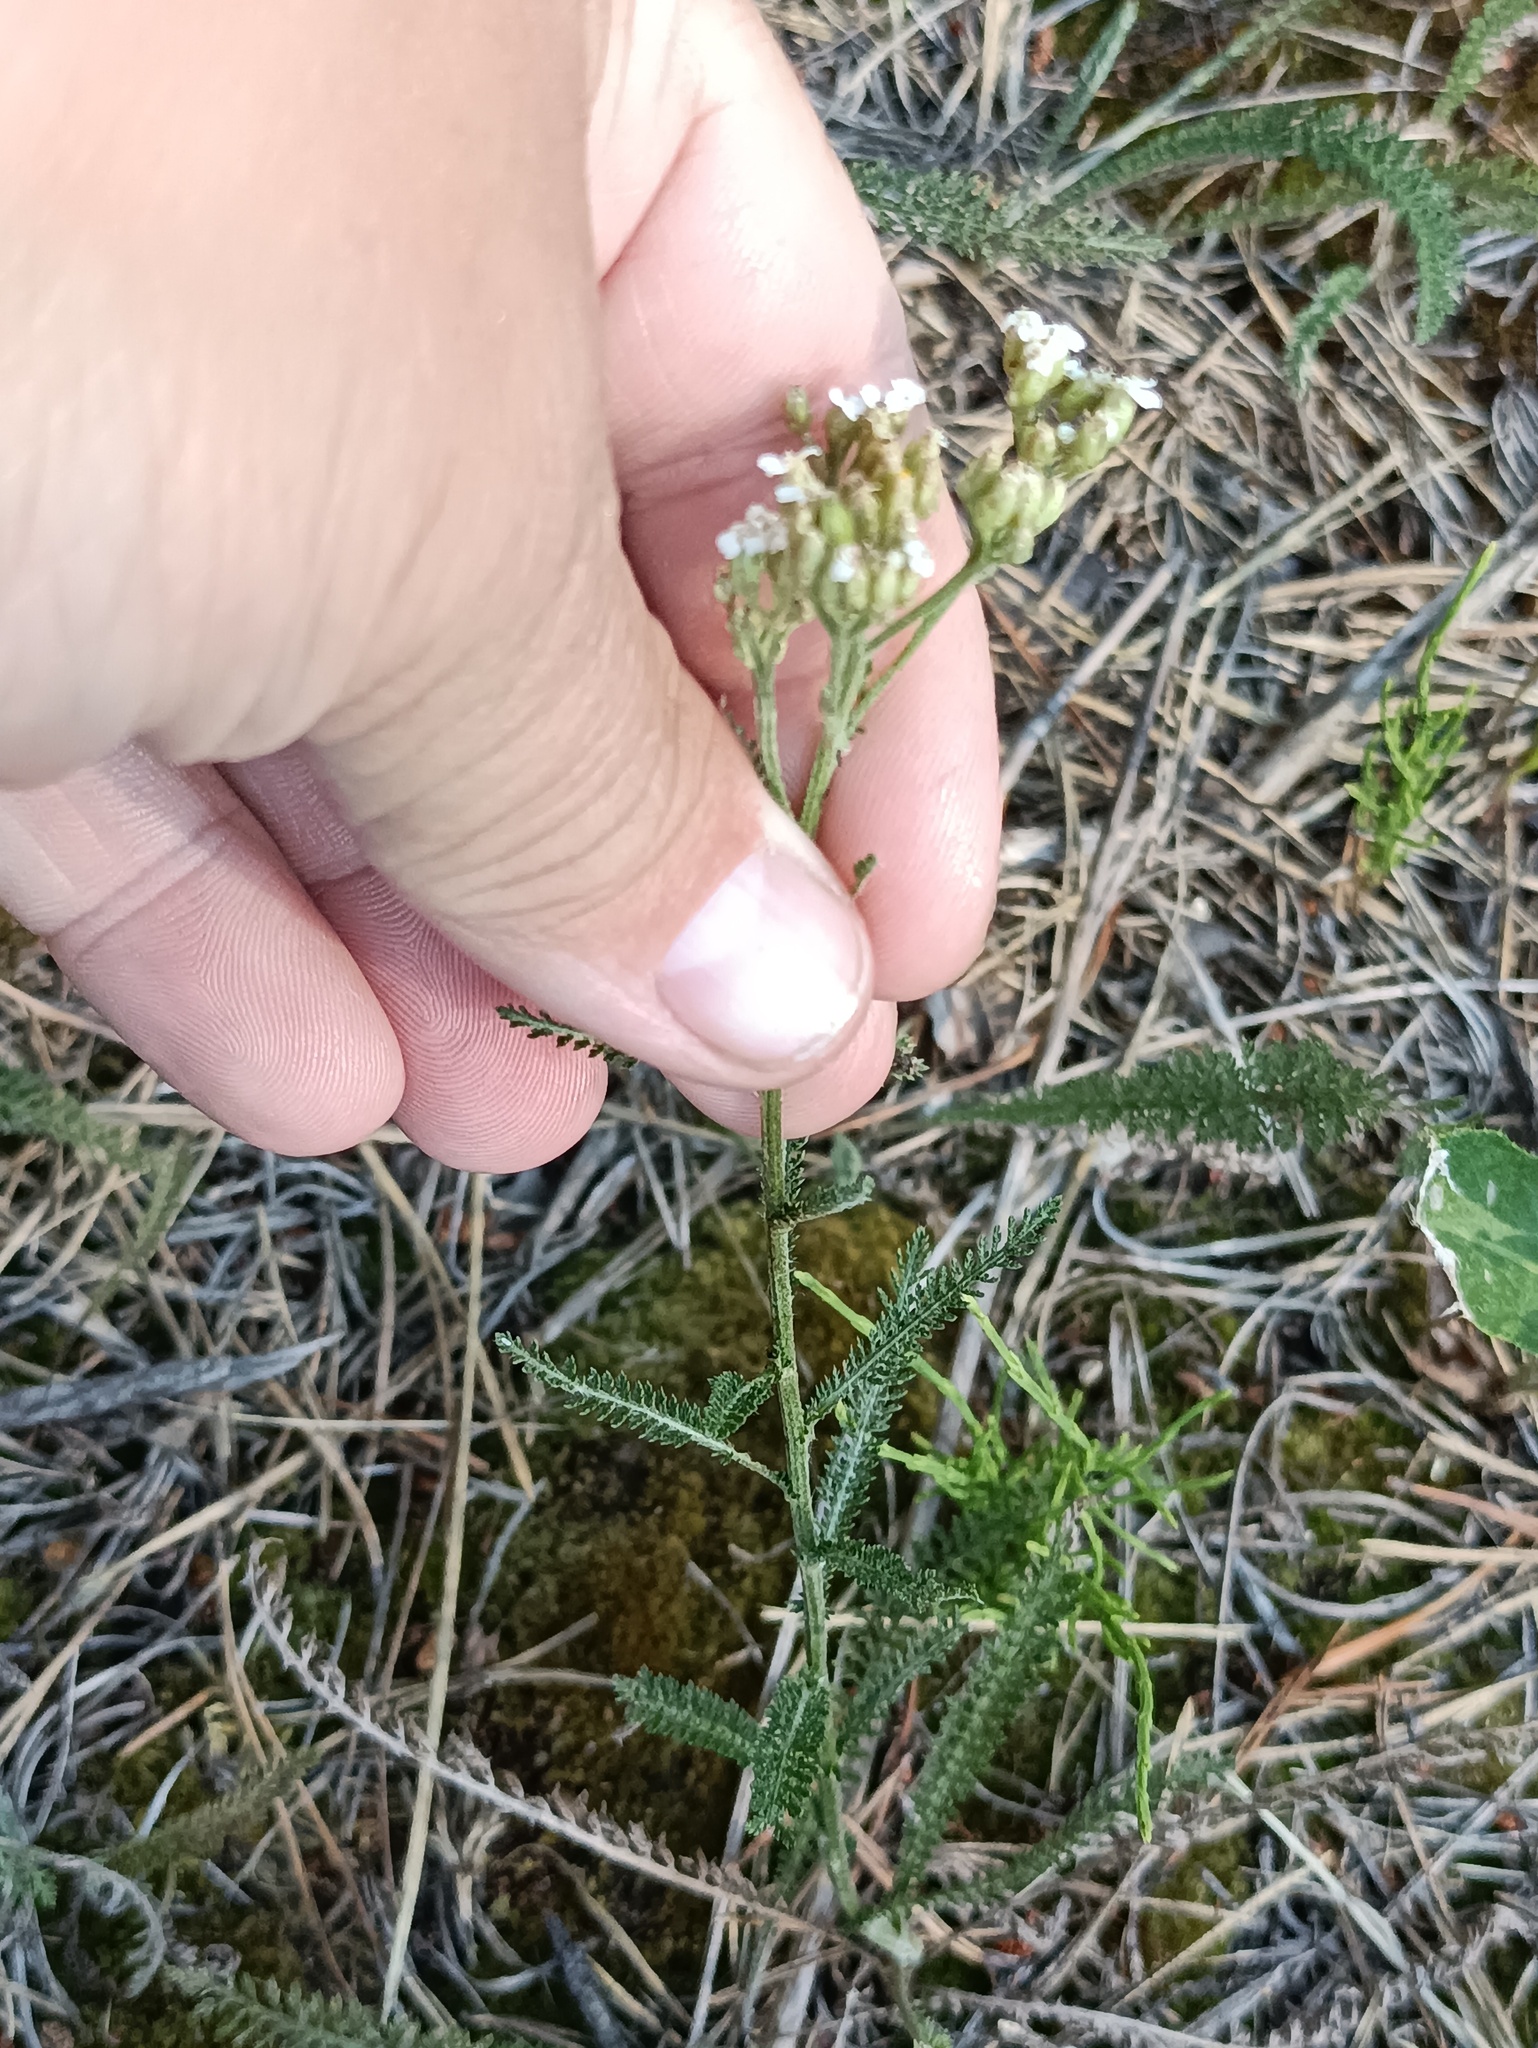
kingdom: Plantae
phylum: Tracheophyta
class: Magnoliopsida
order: Asterales
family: Asteraceae
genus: Achillea
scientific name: Achillea millefolium
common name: Yarrow
